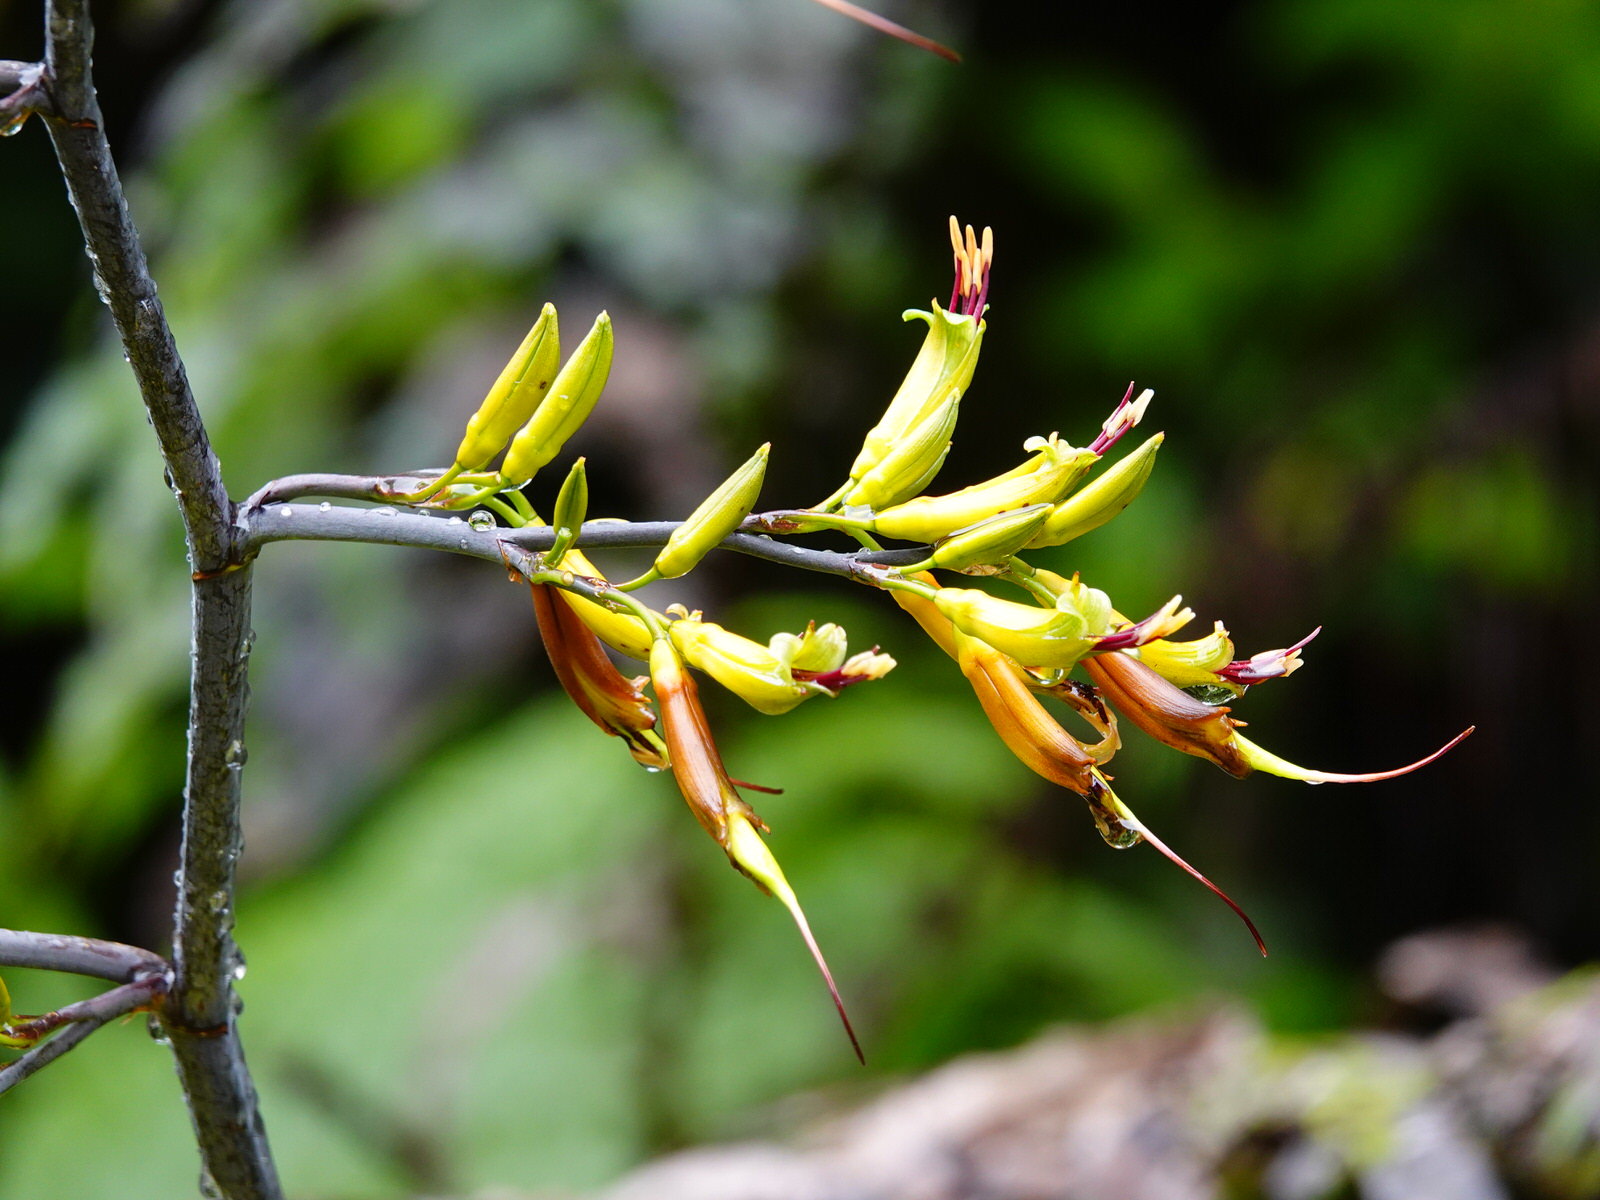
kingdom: Plantae
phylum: Tracheophyta
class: Liliopsida
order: Asparagales
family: Asphodelaceae
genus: Phormium
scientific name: Phormium colensoi
